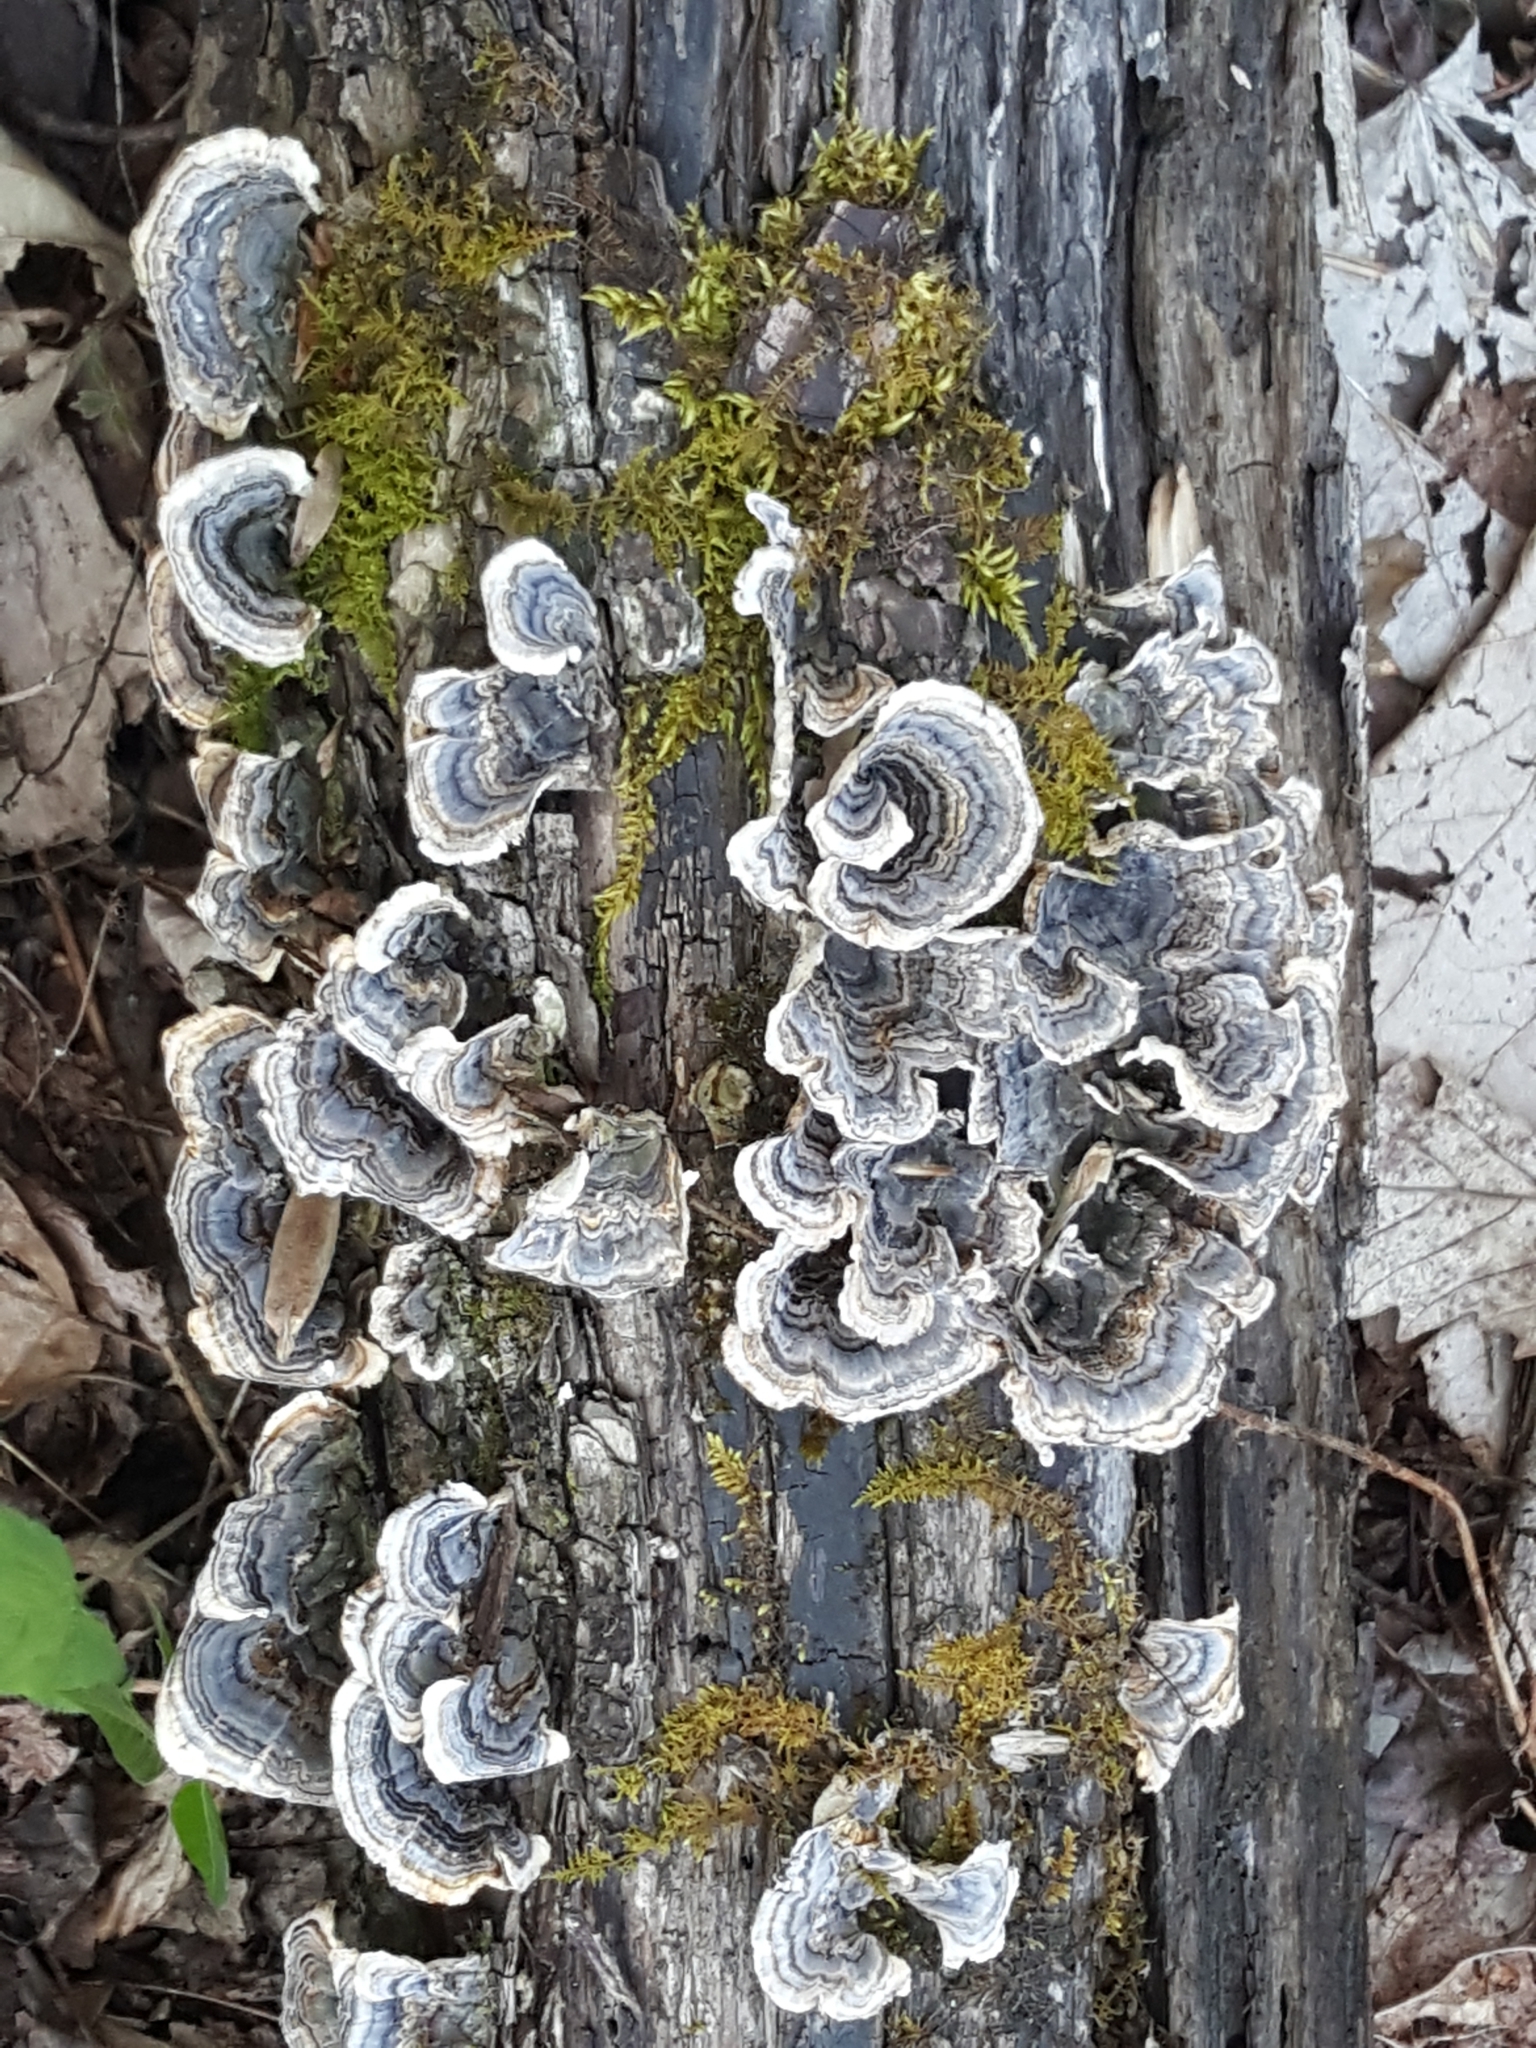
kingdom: Fungi
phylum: Basidiomycota
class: Agaricomycetes
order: Polyporales
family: Polyporaceae
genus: Trametes
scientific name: Trametes versicolor
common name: Turkeytail
